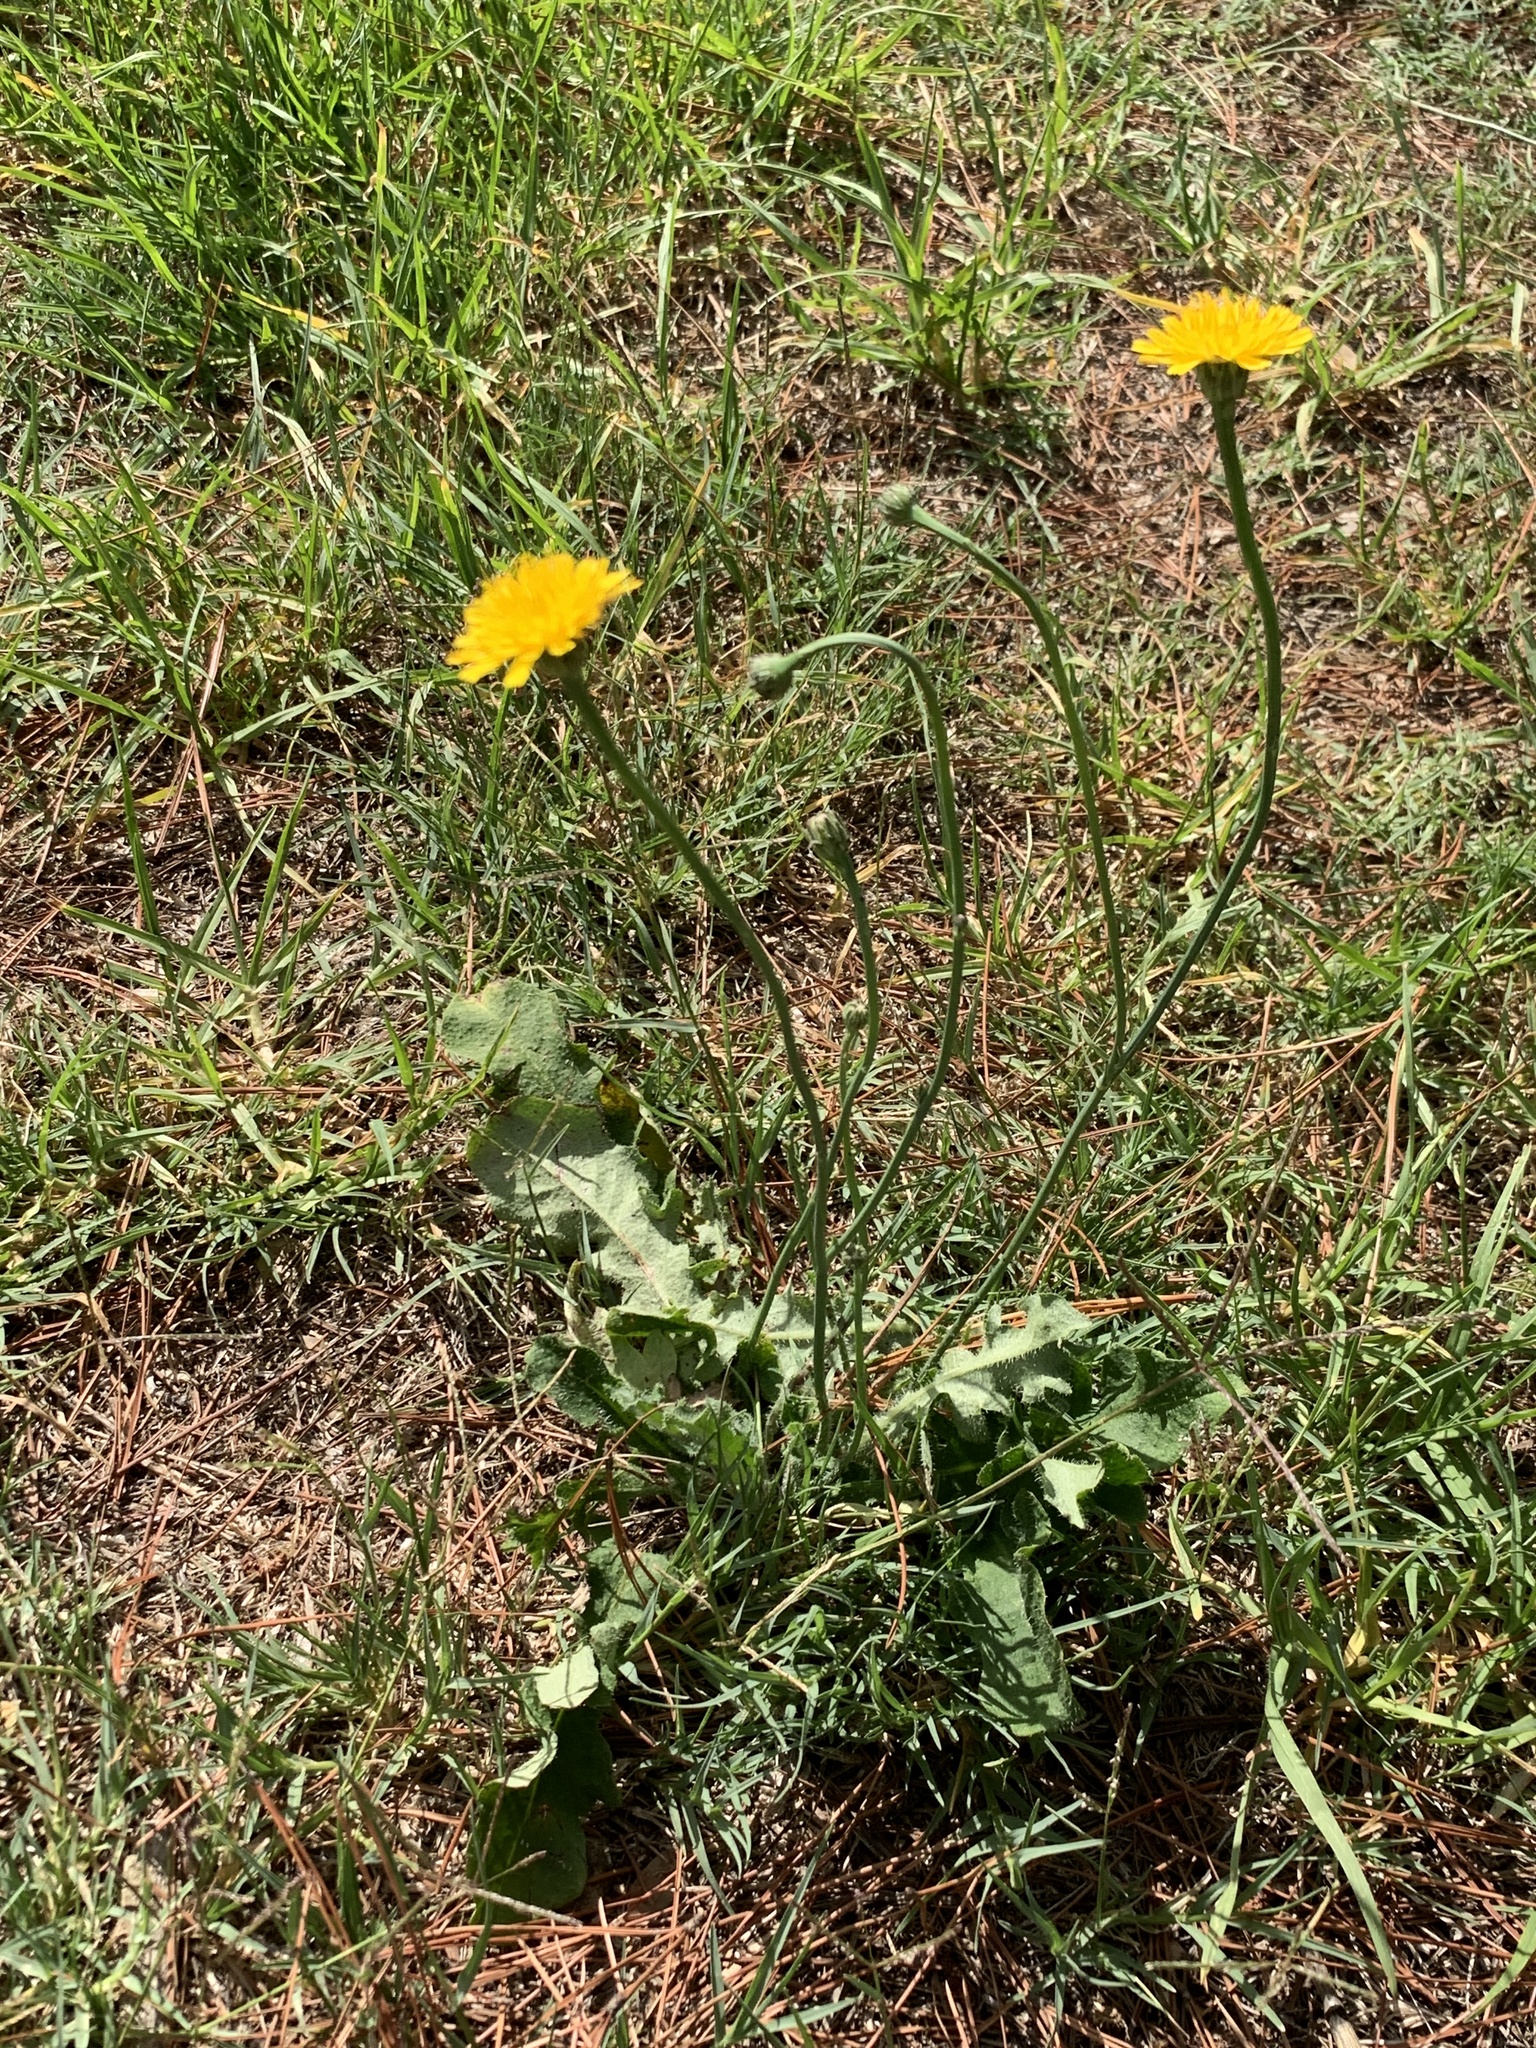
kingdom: Plantae
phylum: Tracheophyta
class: Magnoliopsida
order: Asterales
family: Asteraceae
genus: Hypochaeris
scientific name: Hypochaeris radicata
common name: Flatweed
